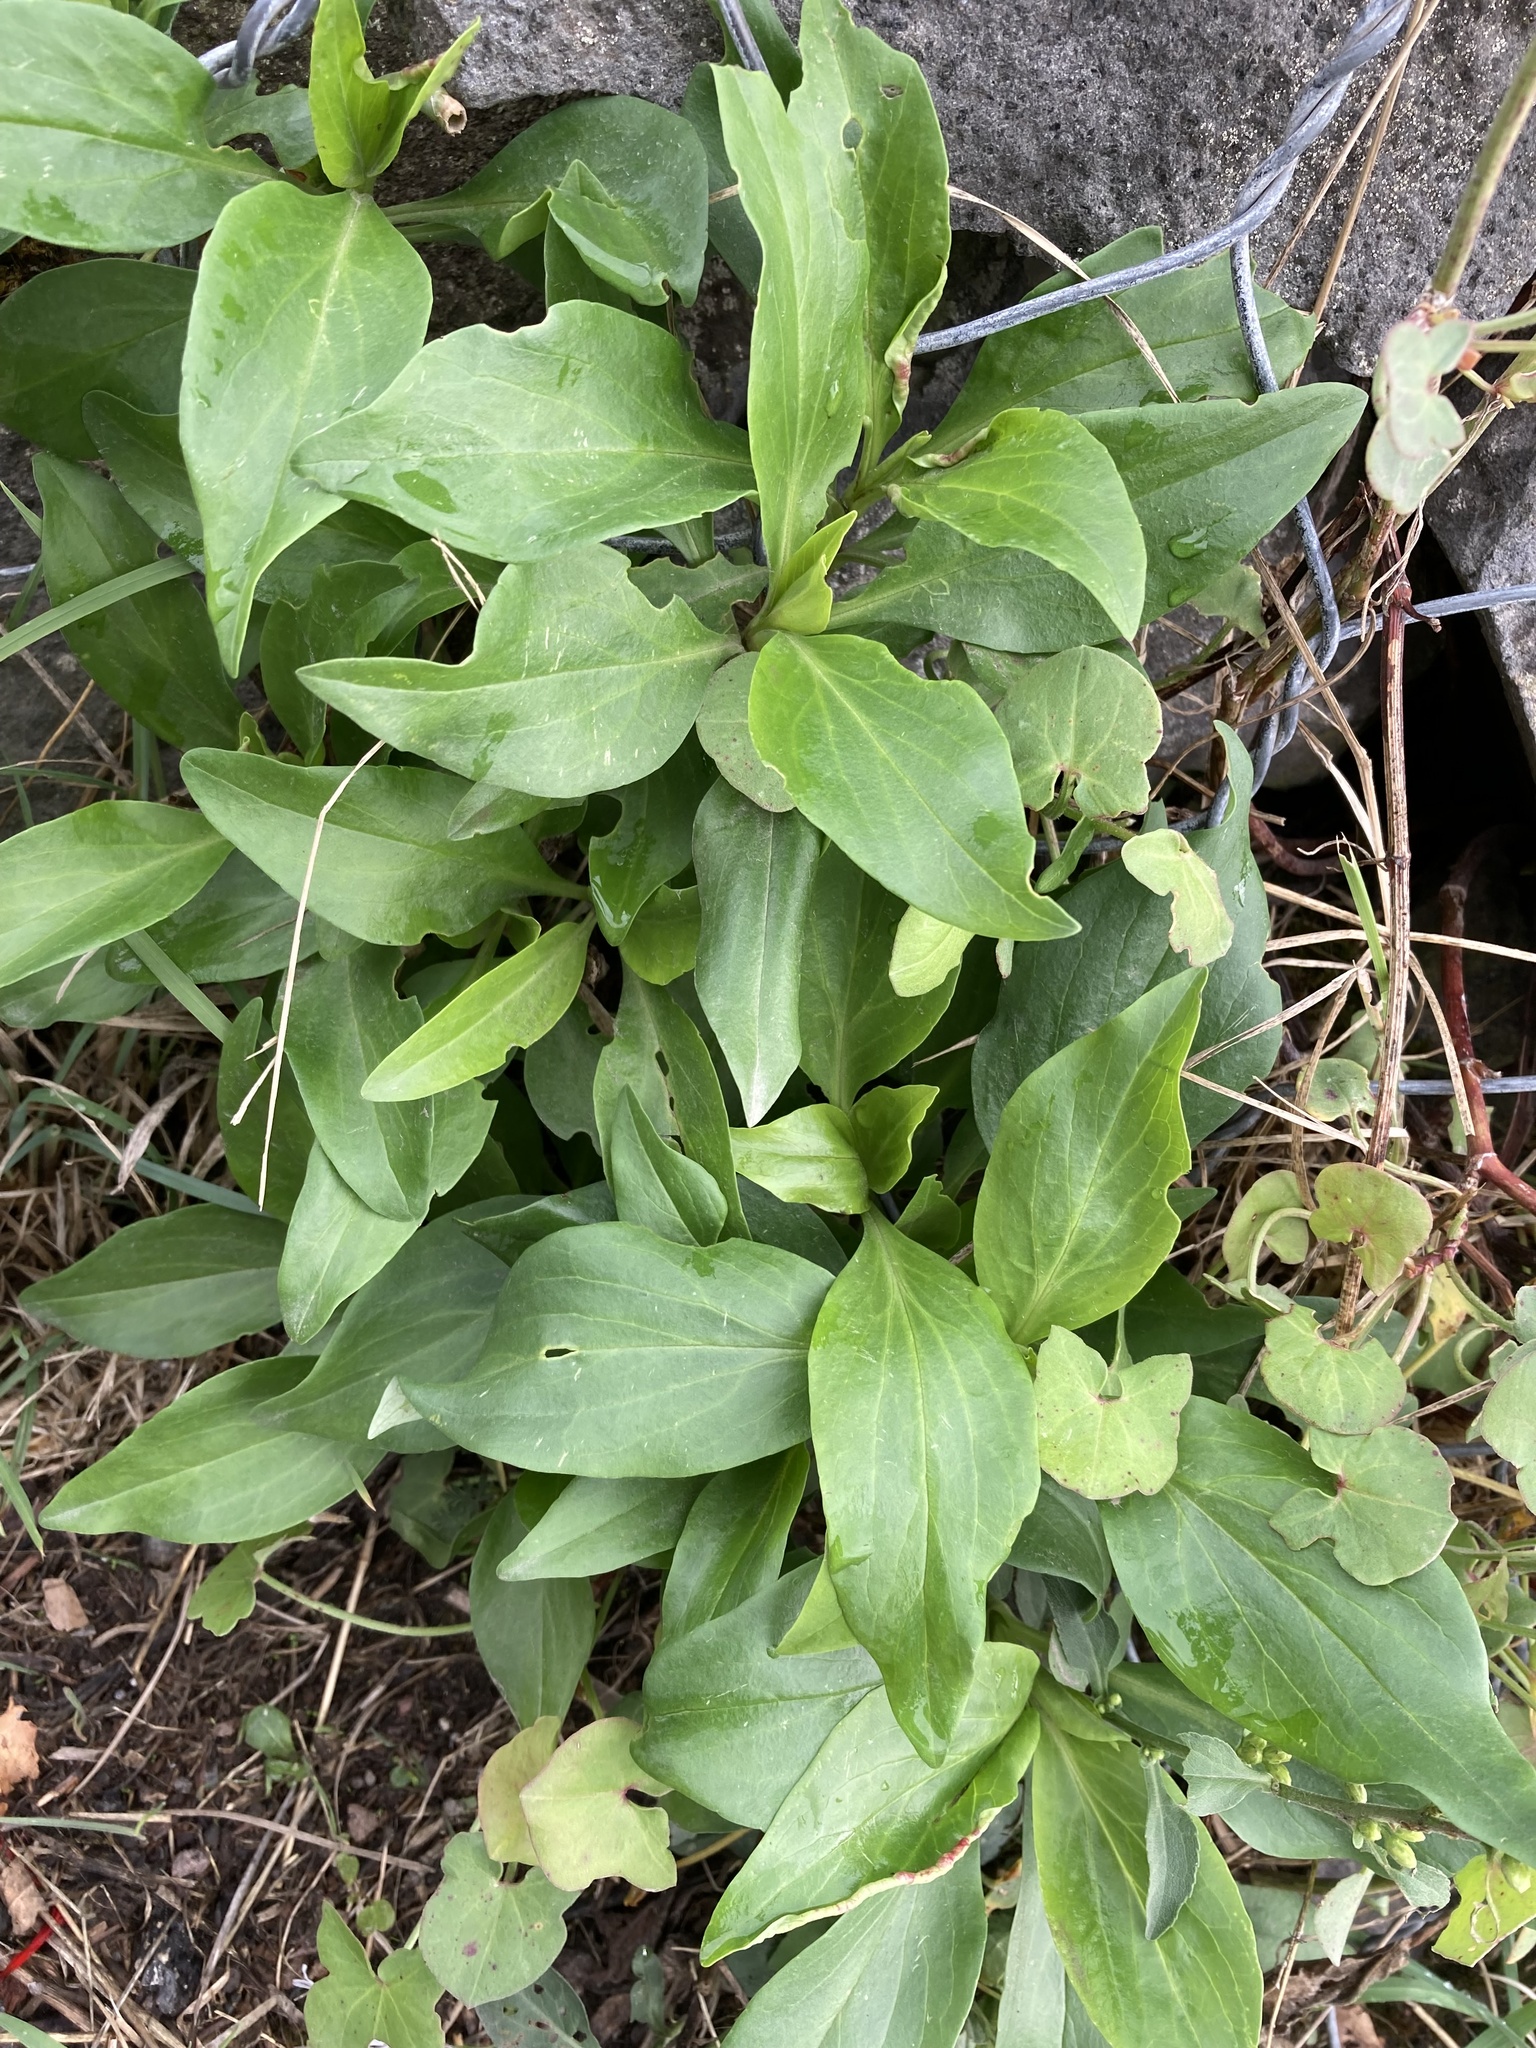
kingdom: Plantae
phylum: Tracheophyta
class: Magnoliopsida
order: Dipsacales
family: Caprifoliaceae
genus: Centranthus
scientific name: Centranthus ruber
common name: Red valerian
